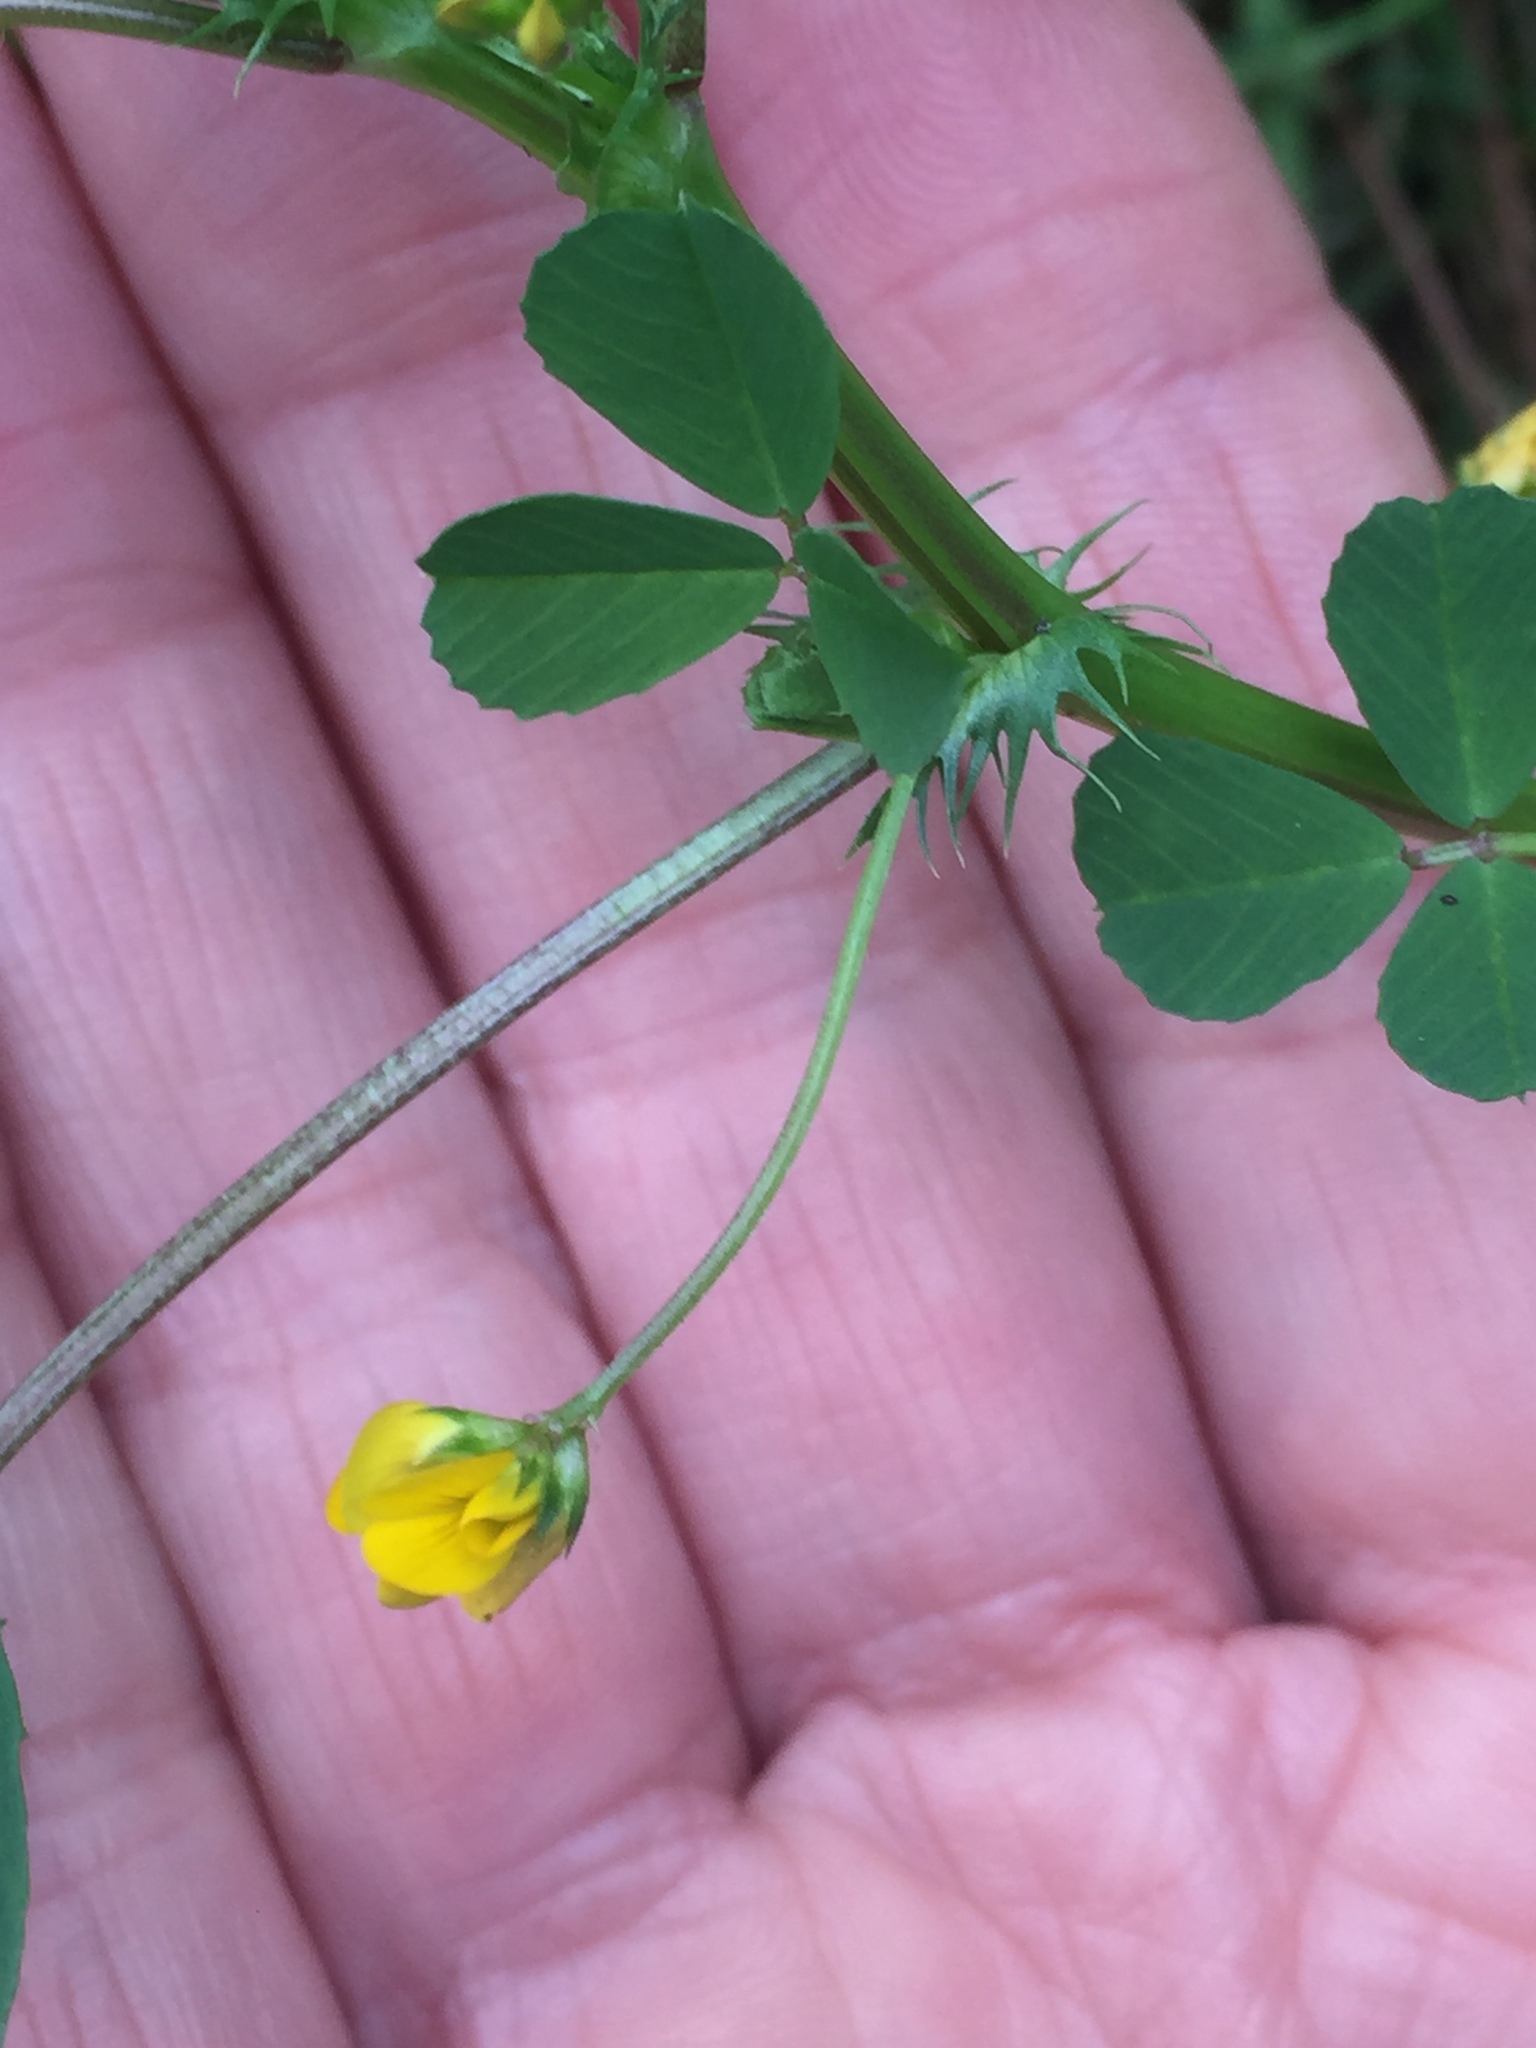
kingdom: Plantae
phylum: Tracheophyta
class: Magnoliopsida
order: Fabales
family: Fabaceae
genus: Medicago
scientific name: Medicago polymorpha
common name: Burclover
